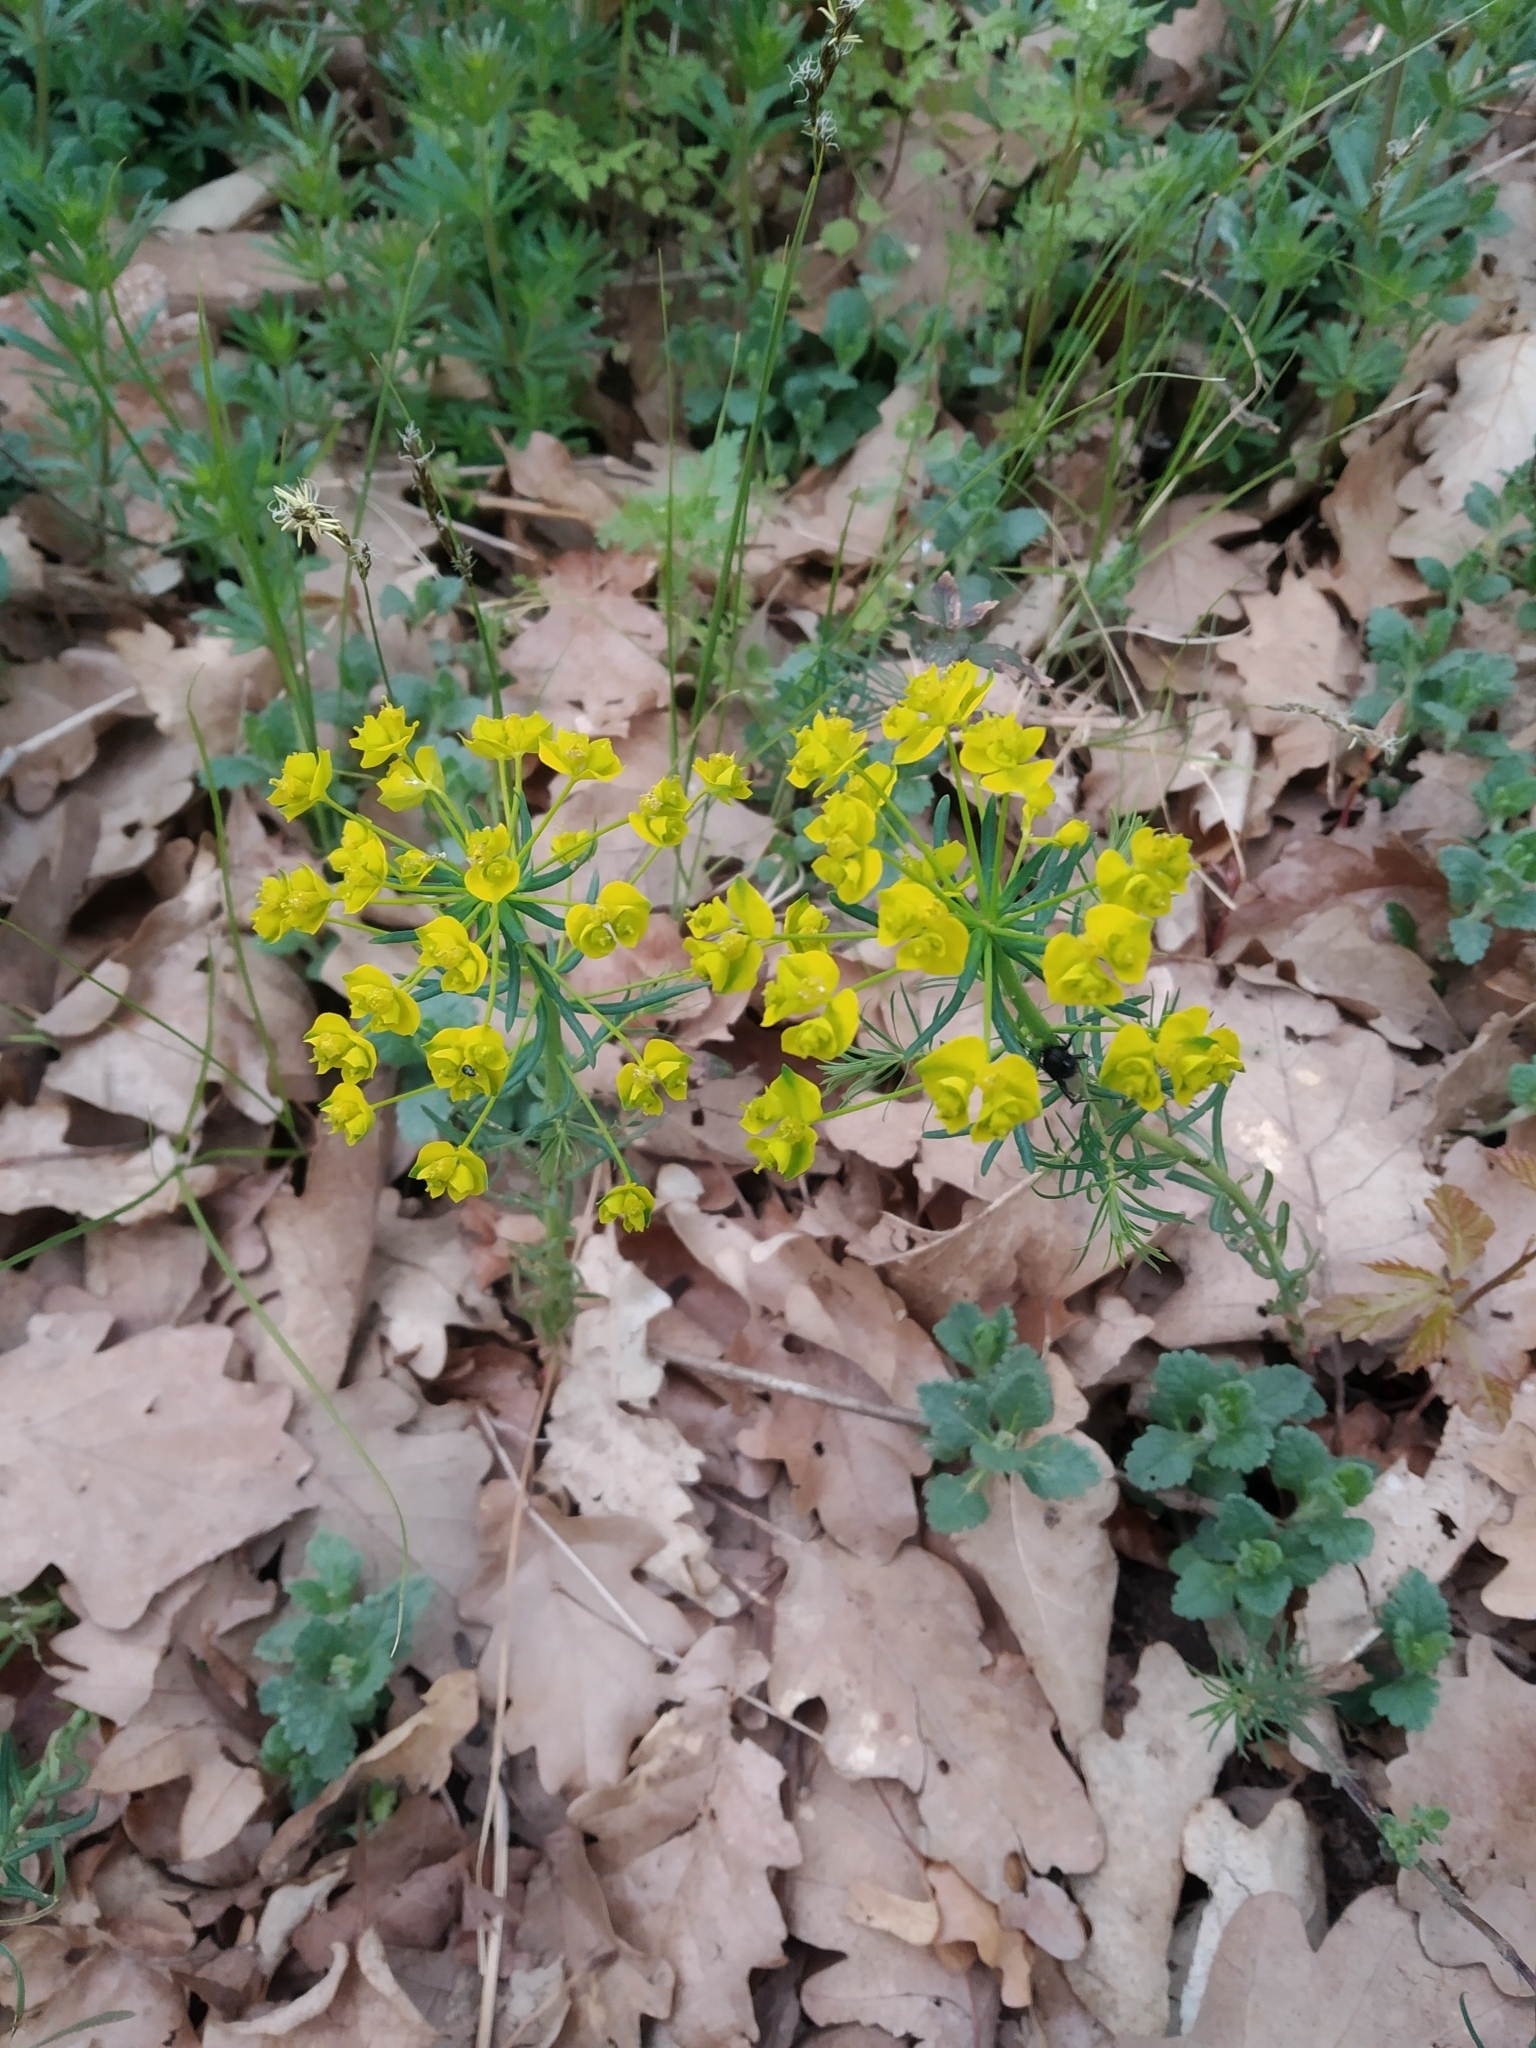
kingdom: Plantae
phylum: Tracheophyta
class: Magnoliopsida
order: Malpighiales
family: Euphorbiaceae
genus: Euphorbia
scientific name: Euphorbia cyparissias
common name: Cypress spurge
